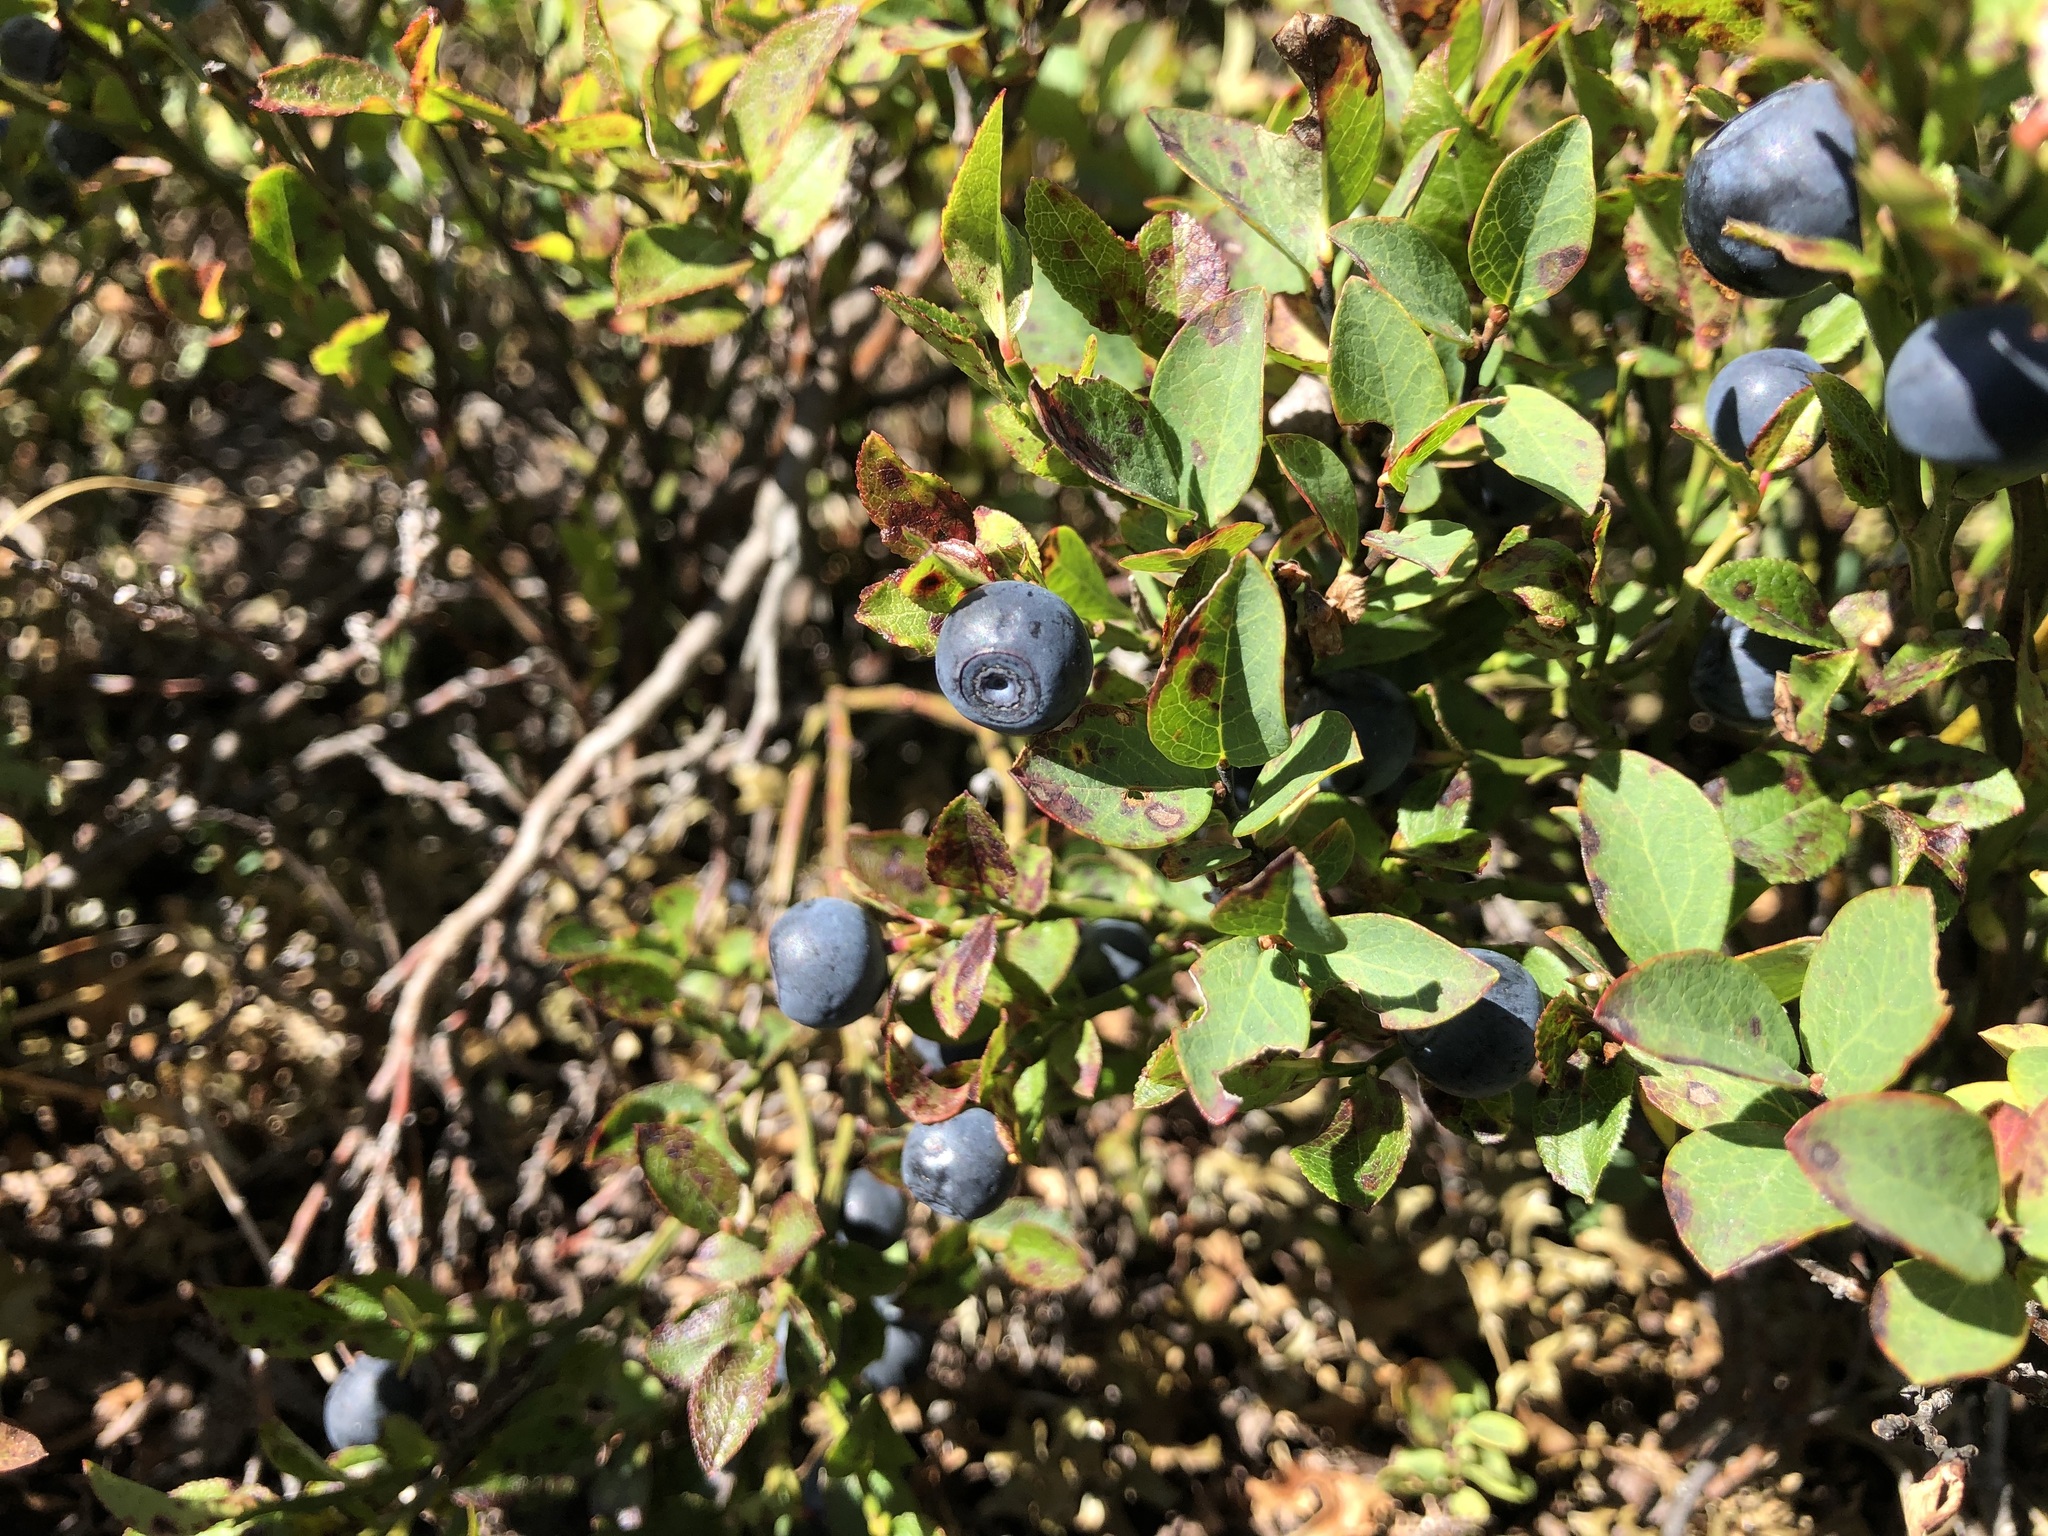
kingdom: Plantae
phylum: Tracheophyta
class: Magnoliopsida
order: Ericales
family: Ericaceae
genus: Vaccinium
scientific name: Vaccinium myrtillus
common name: Bilberry
